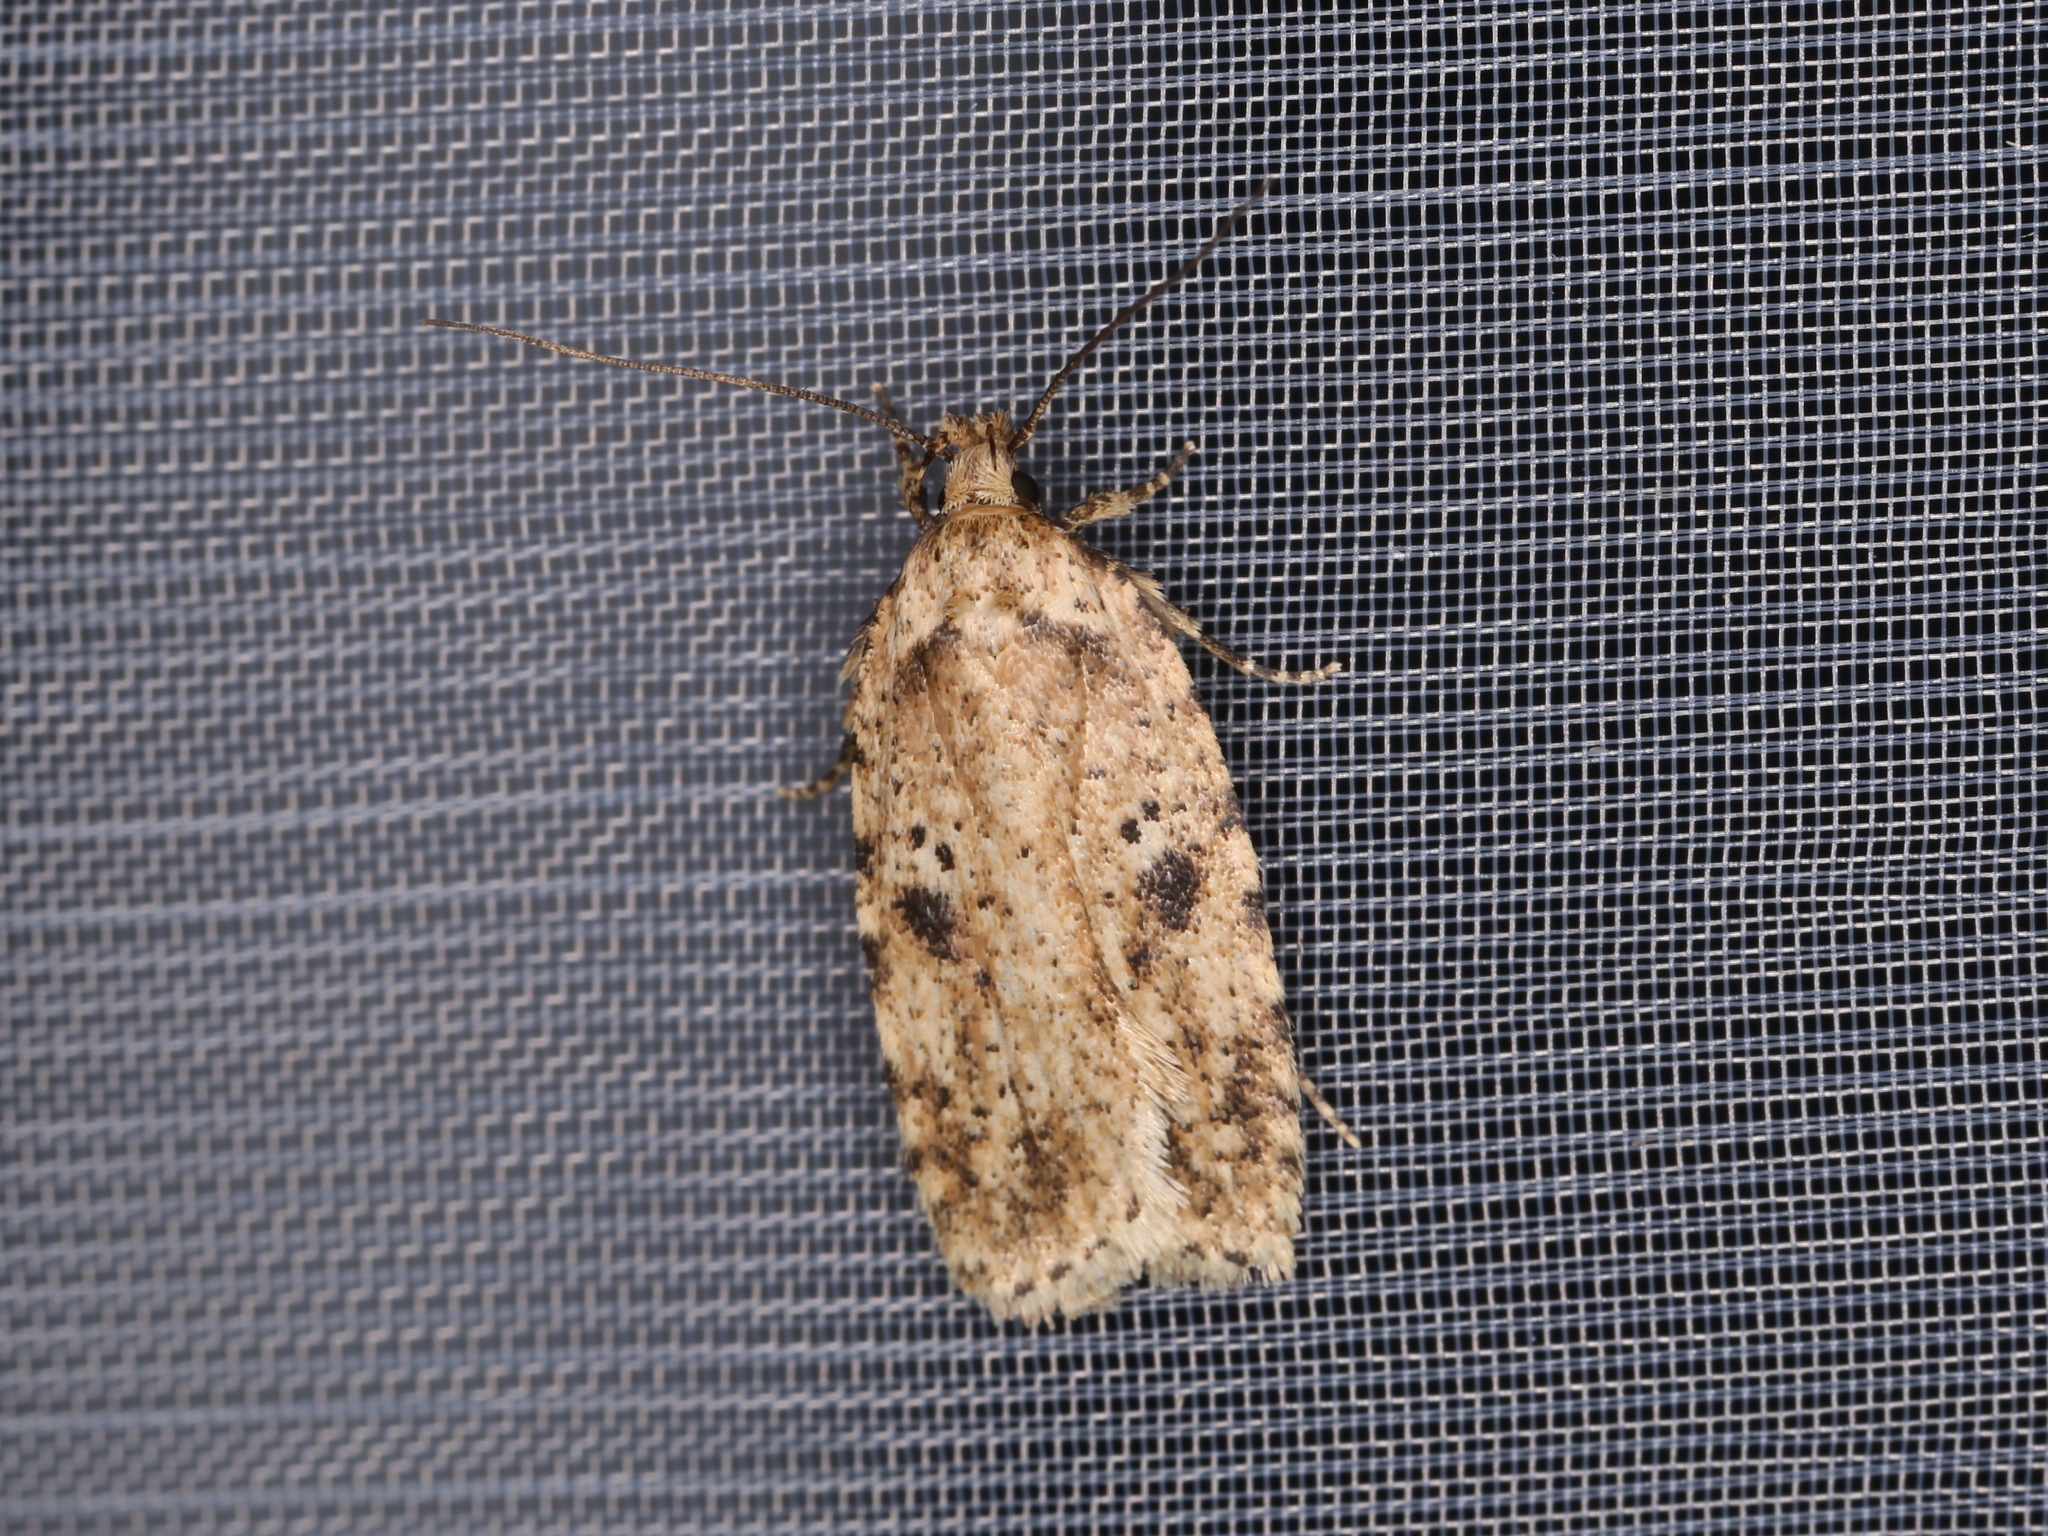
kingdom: Animalia
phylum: Arthropoda
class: Insecta
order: Lepidoptera
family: Depressariidae
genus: Agonopterix
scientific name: Agonopterix arenella
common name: Brindled flat-body
